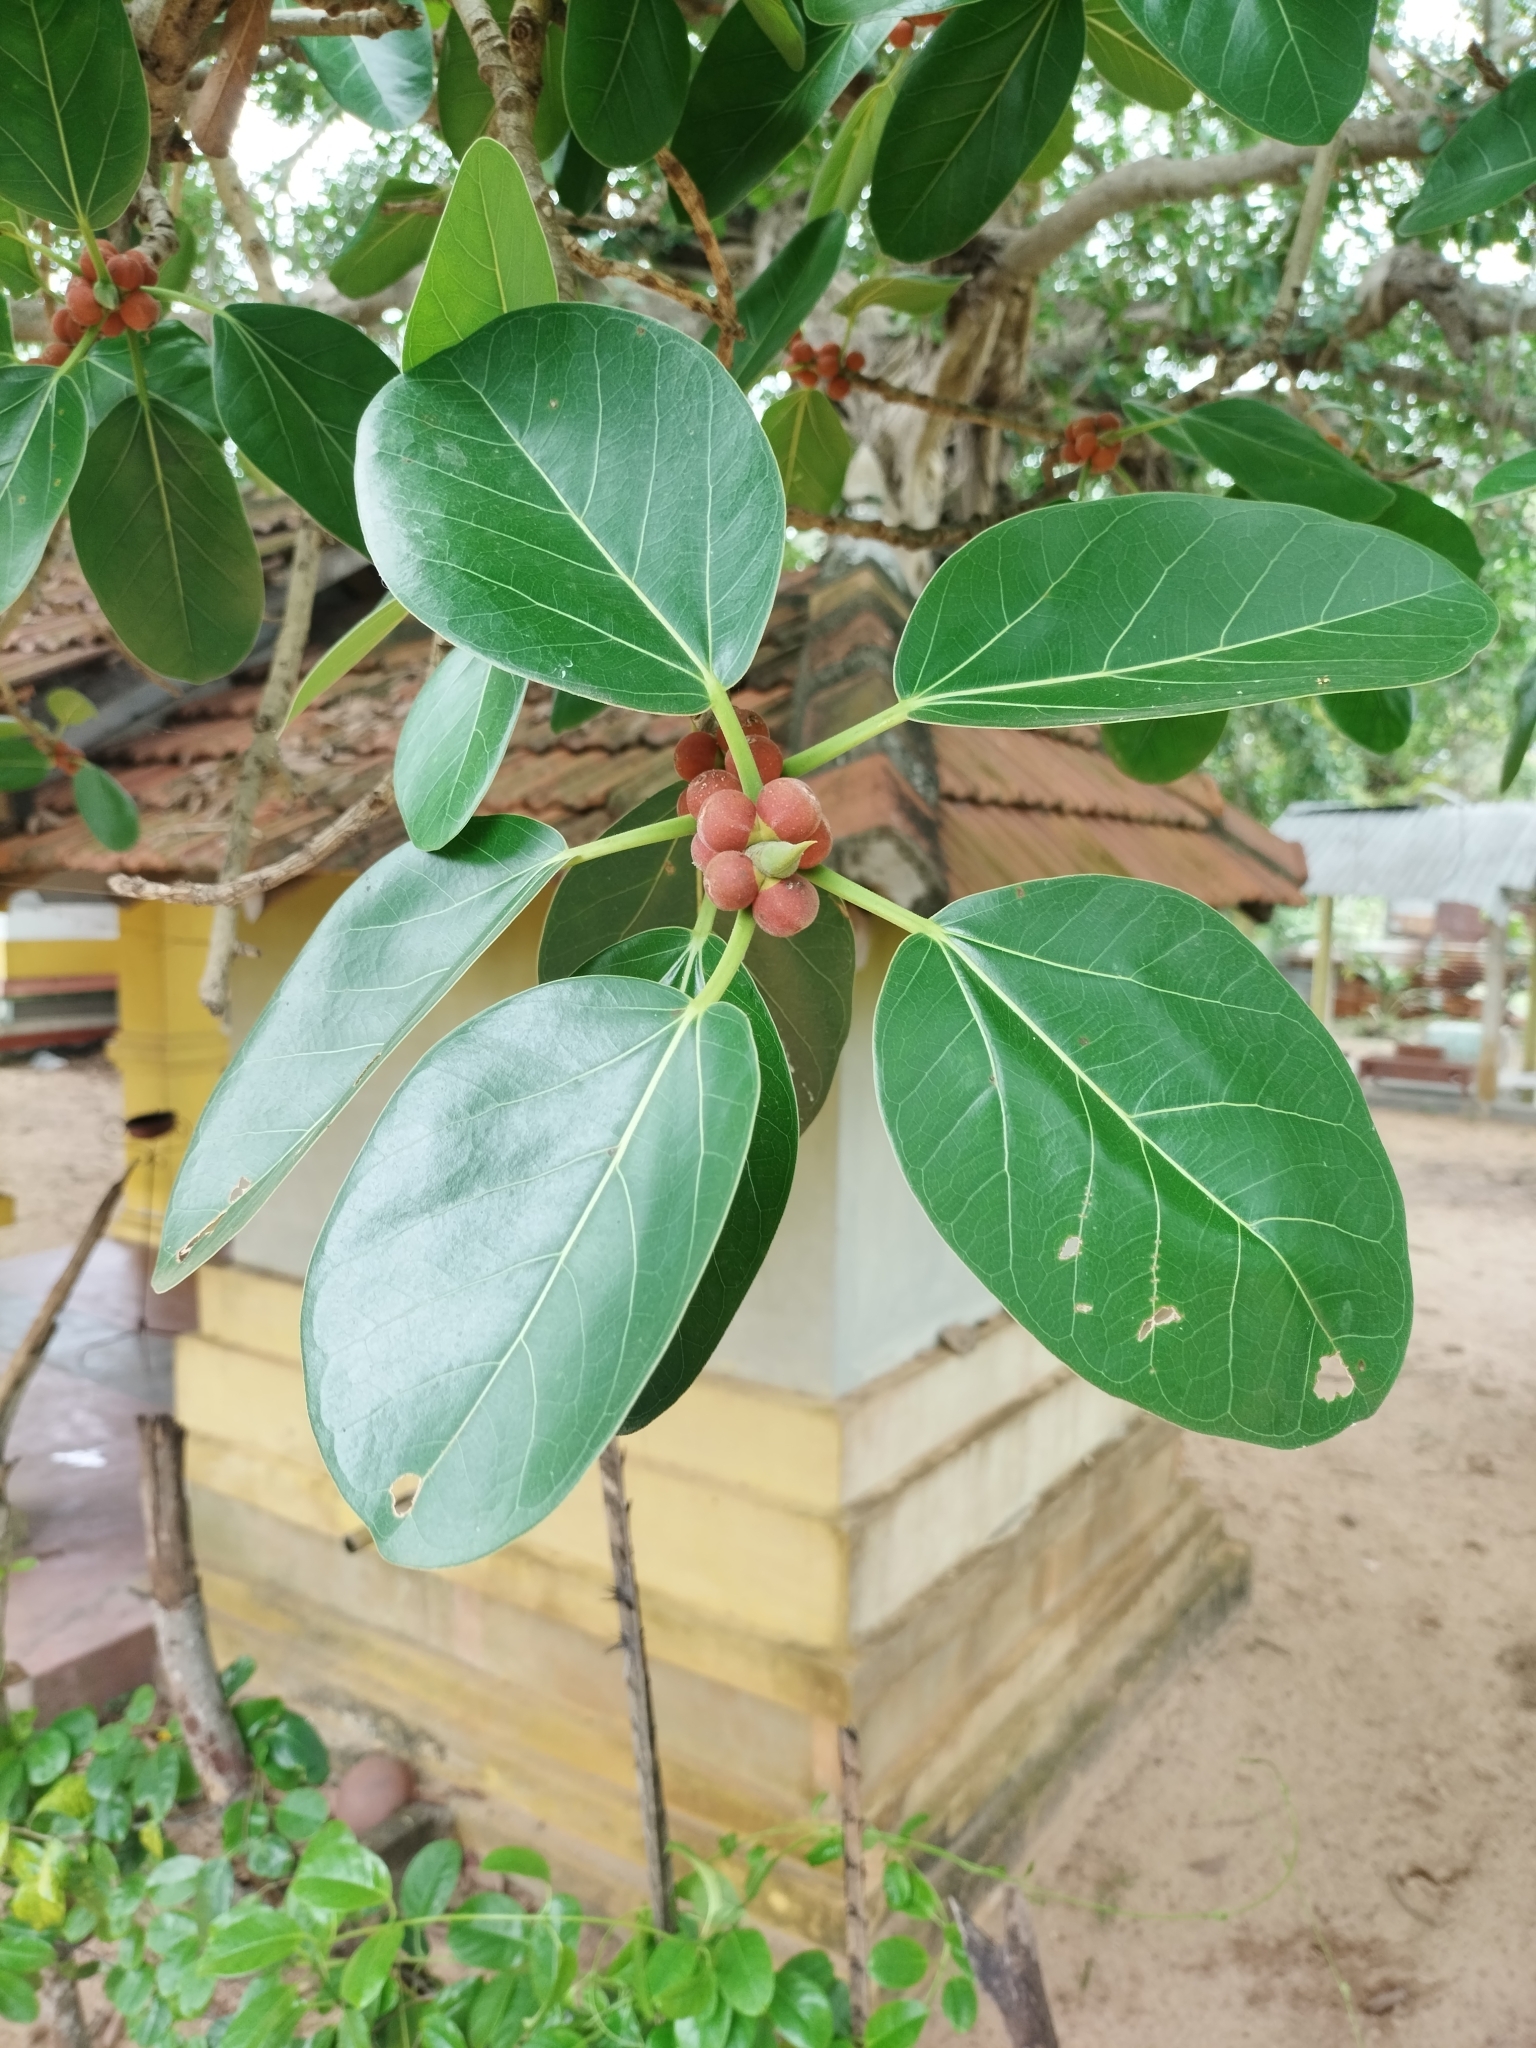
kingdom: Plantae
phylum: Tracheophyta
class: Magnoliopsida
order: Rosales
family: Moraceae
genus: Ficus
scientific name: Ficus benghalensis
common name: Indian banyan
